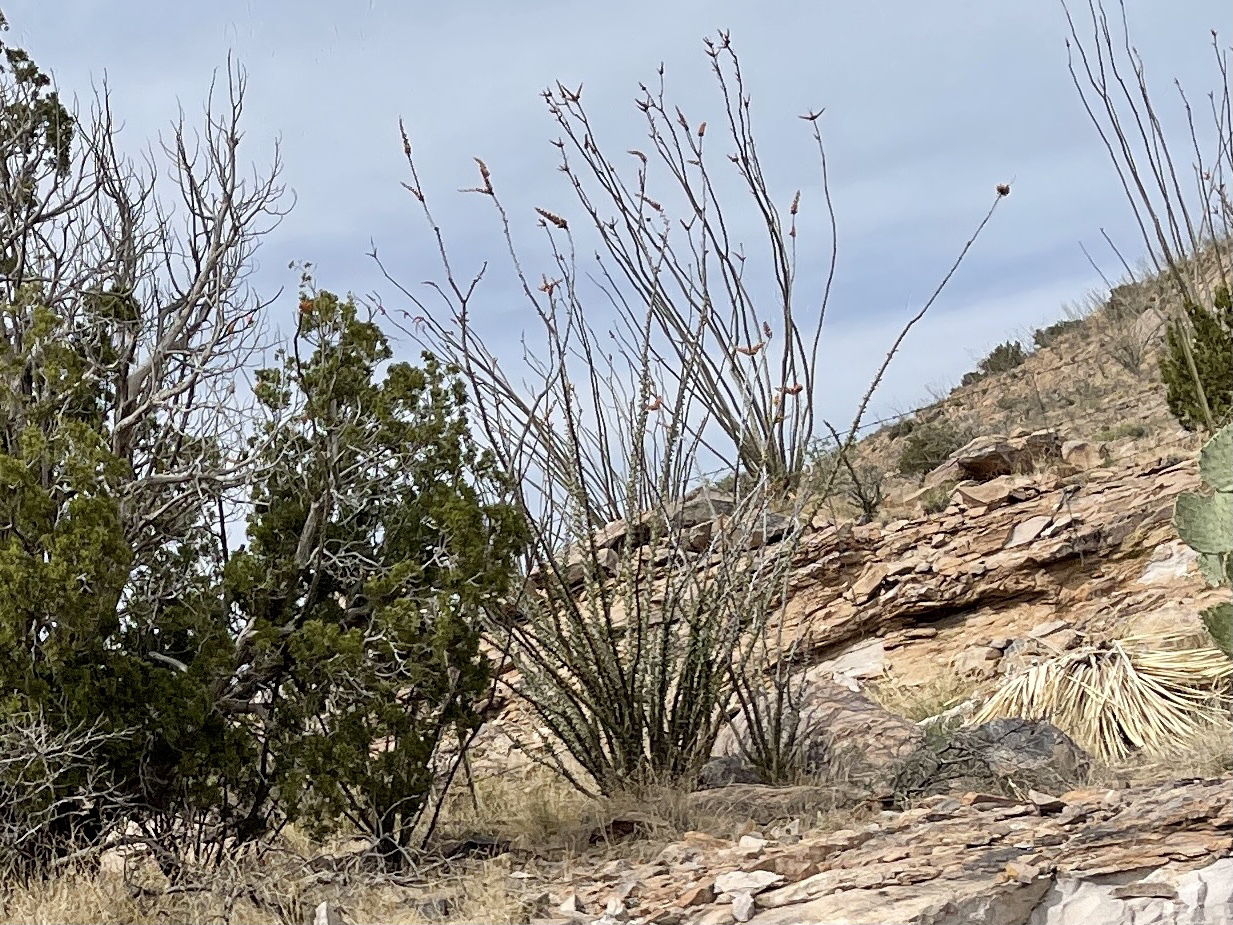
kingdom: Plantae
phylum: Tracheophyta
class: Magnoliopsida
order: Ericales
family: Fouquieriaceae
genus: Fouquieria
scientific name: Fouquieria splendens
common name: Vine-cactus
